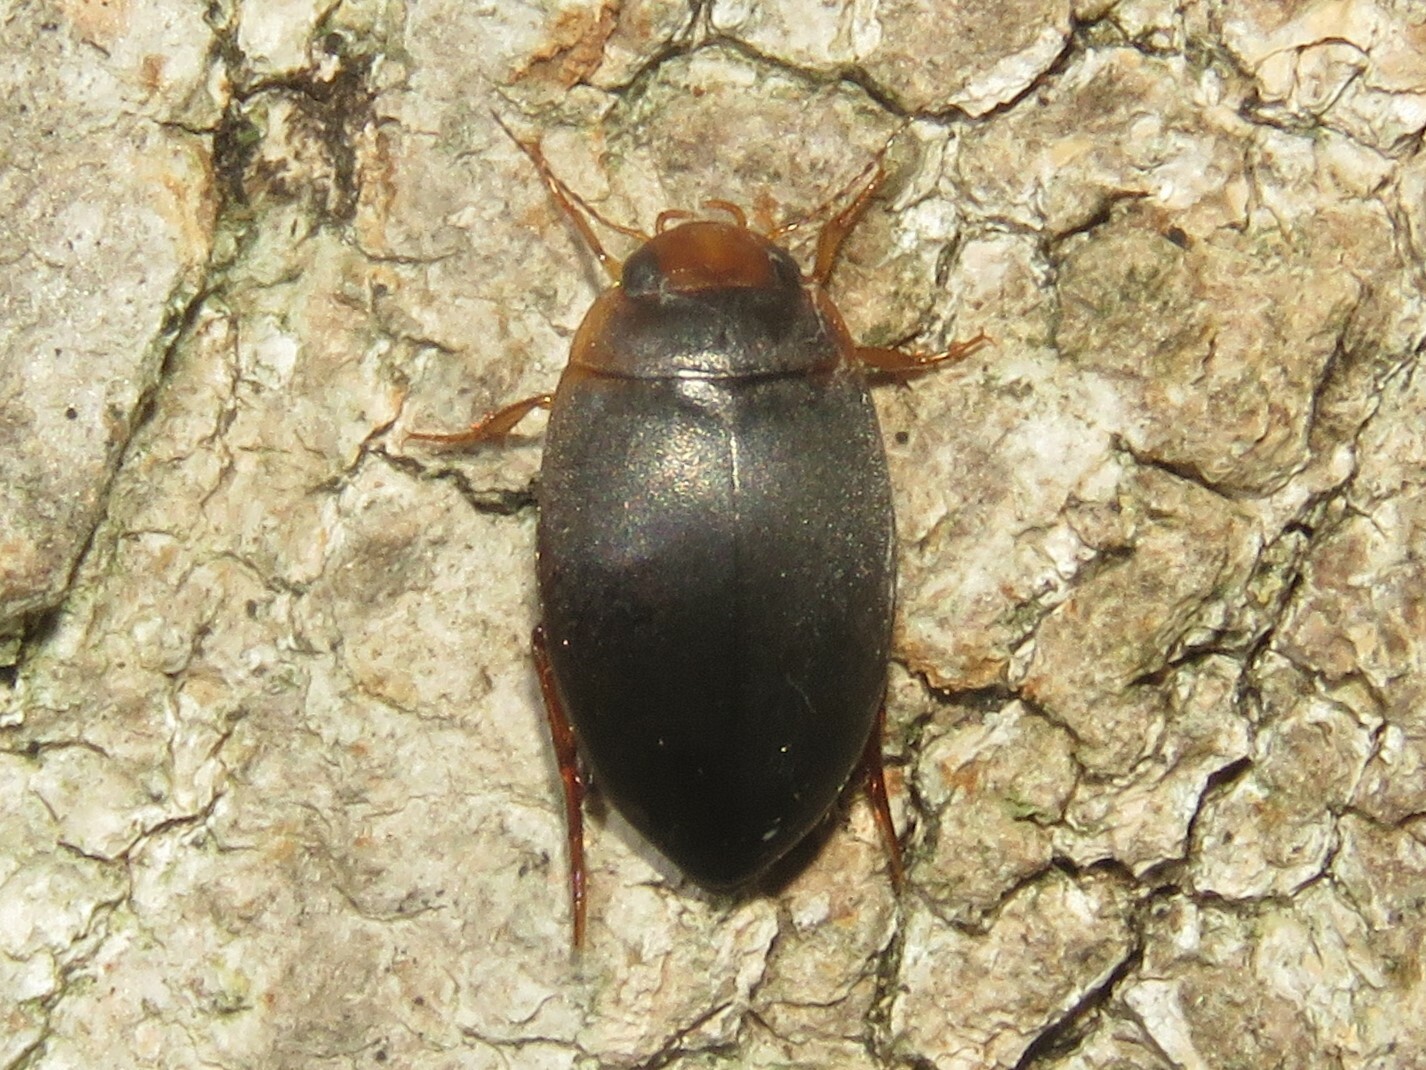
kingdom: Animalia
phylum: Arthropoda
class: Insecta
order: Coleoptera
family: Dytiscidae
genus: Agabetes
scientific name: Agabetes acuductus
